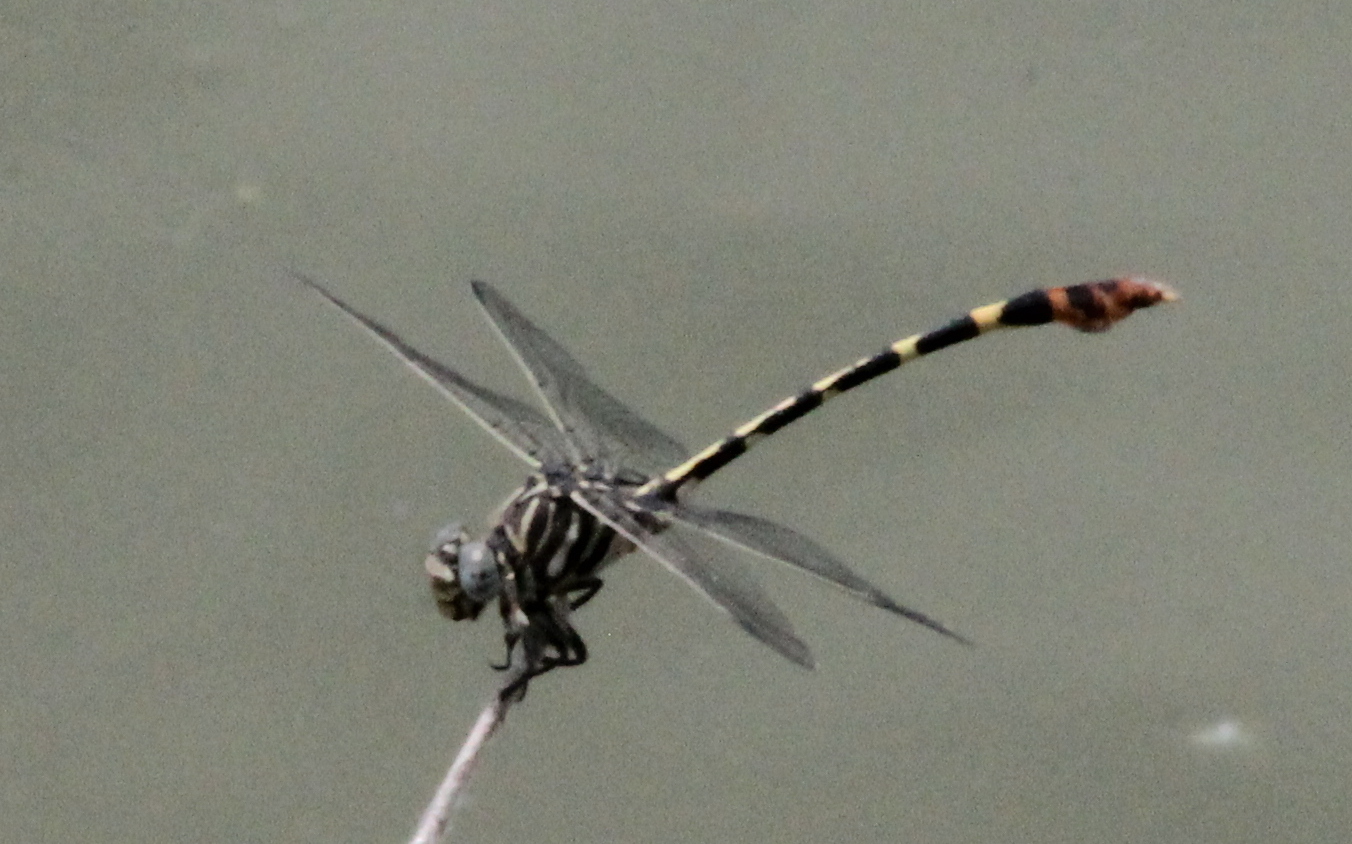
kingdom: Animalia
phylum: Arthropoda
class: Insecta
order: Odonata
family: Gomphidae
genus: Phyllogomphoides
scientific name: Phyllogomphoides stigmatus
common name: Four-striped leaftail
